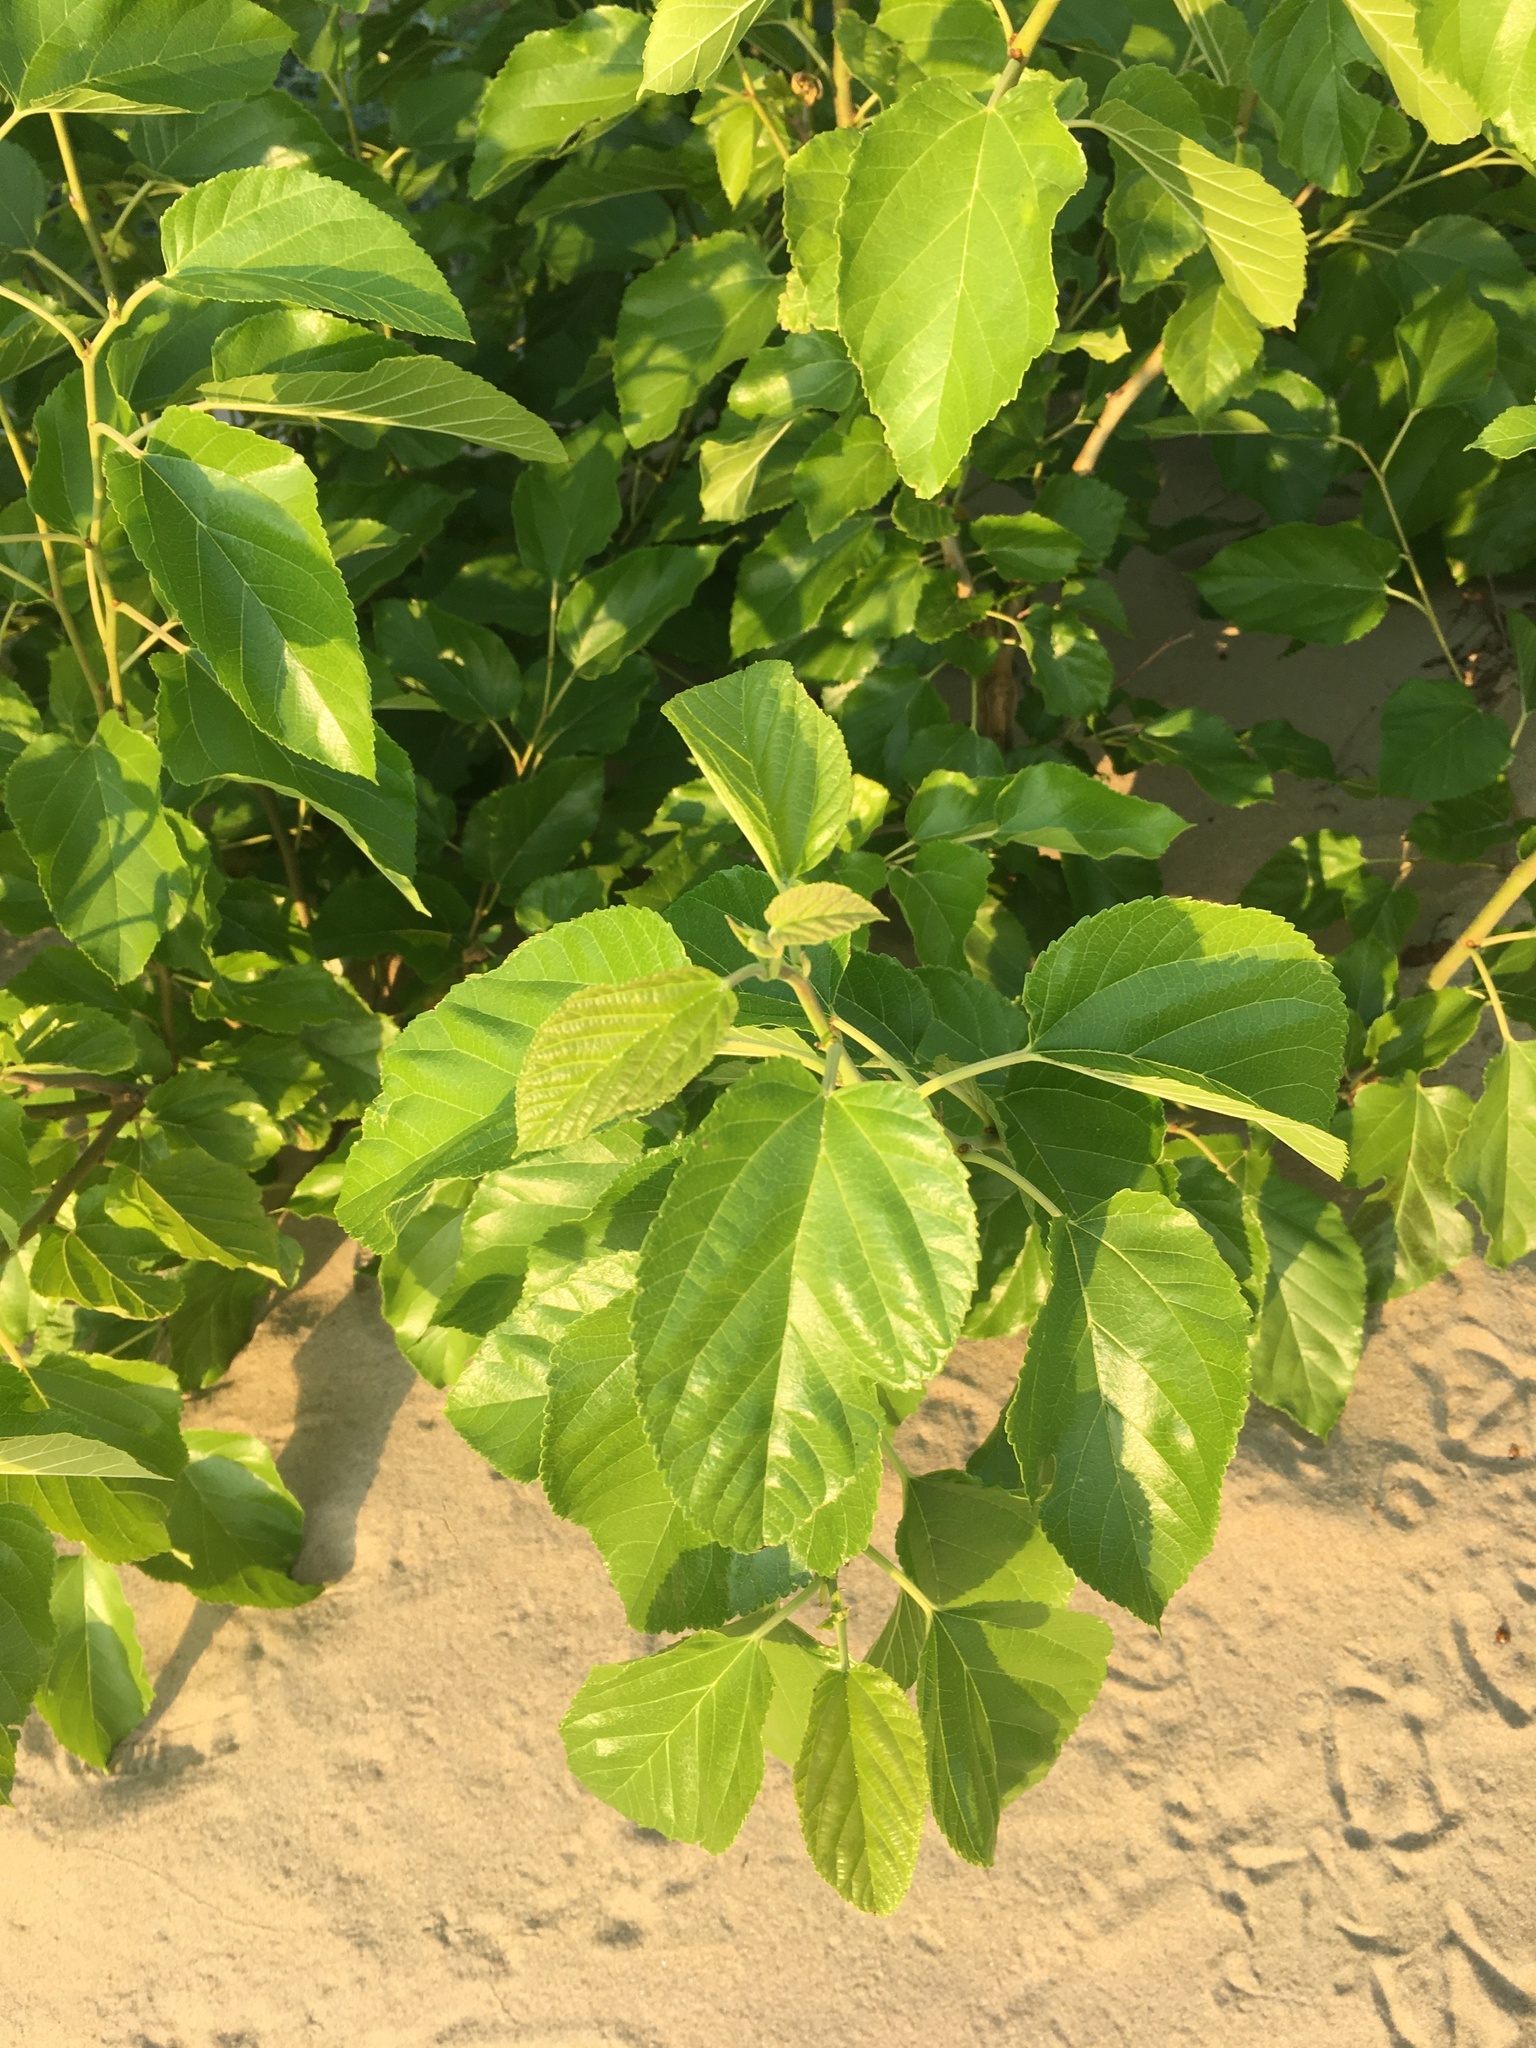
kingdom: Plantae
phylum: Tracheophyta
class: Magnoliopsida
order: Rosales
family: Moraceae
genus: Morus
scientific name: Morus alba
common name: White mulberry
